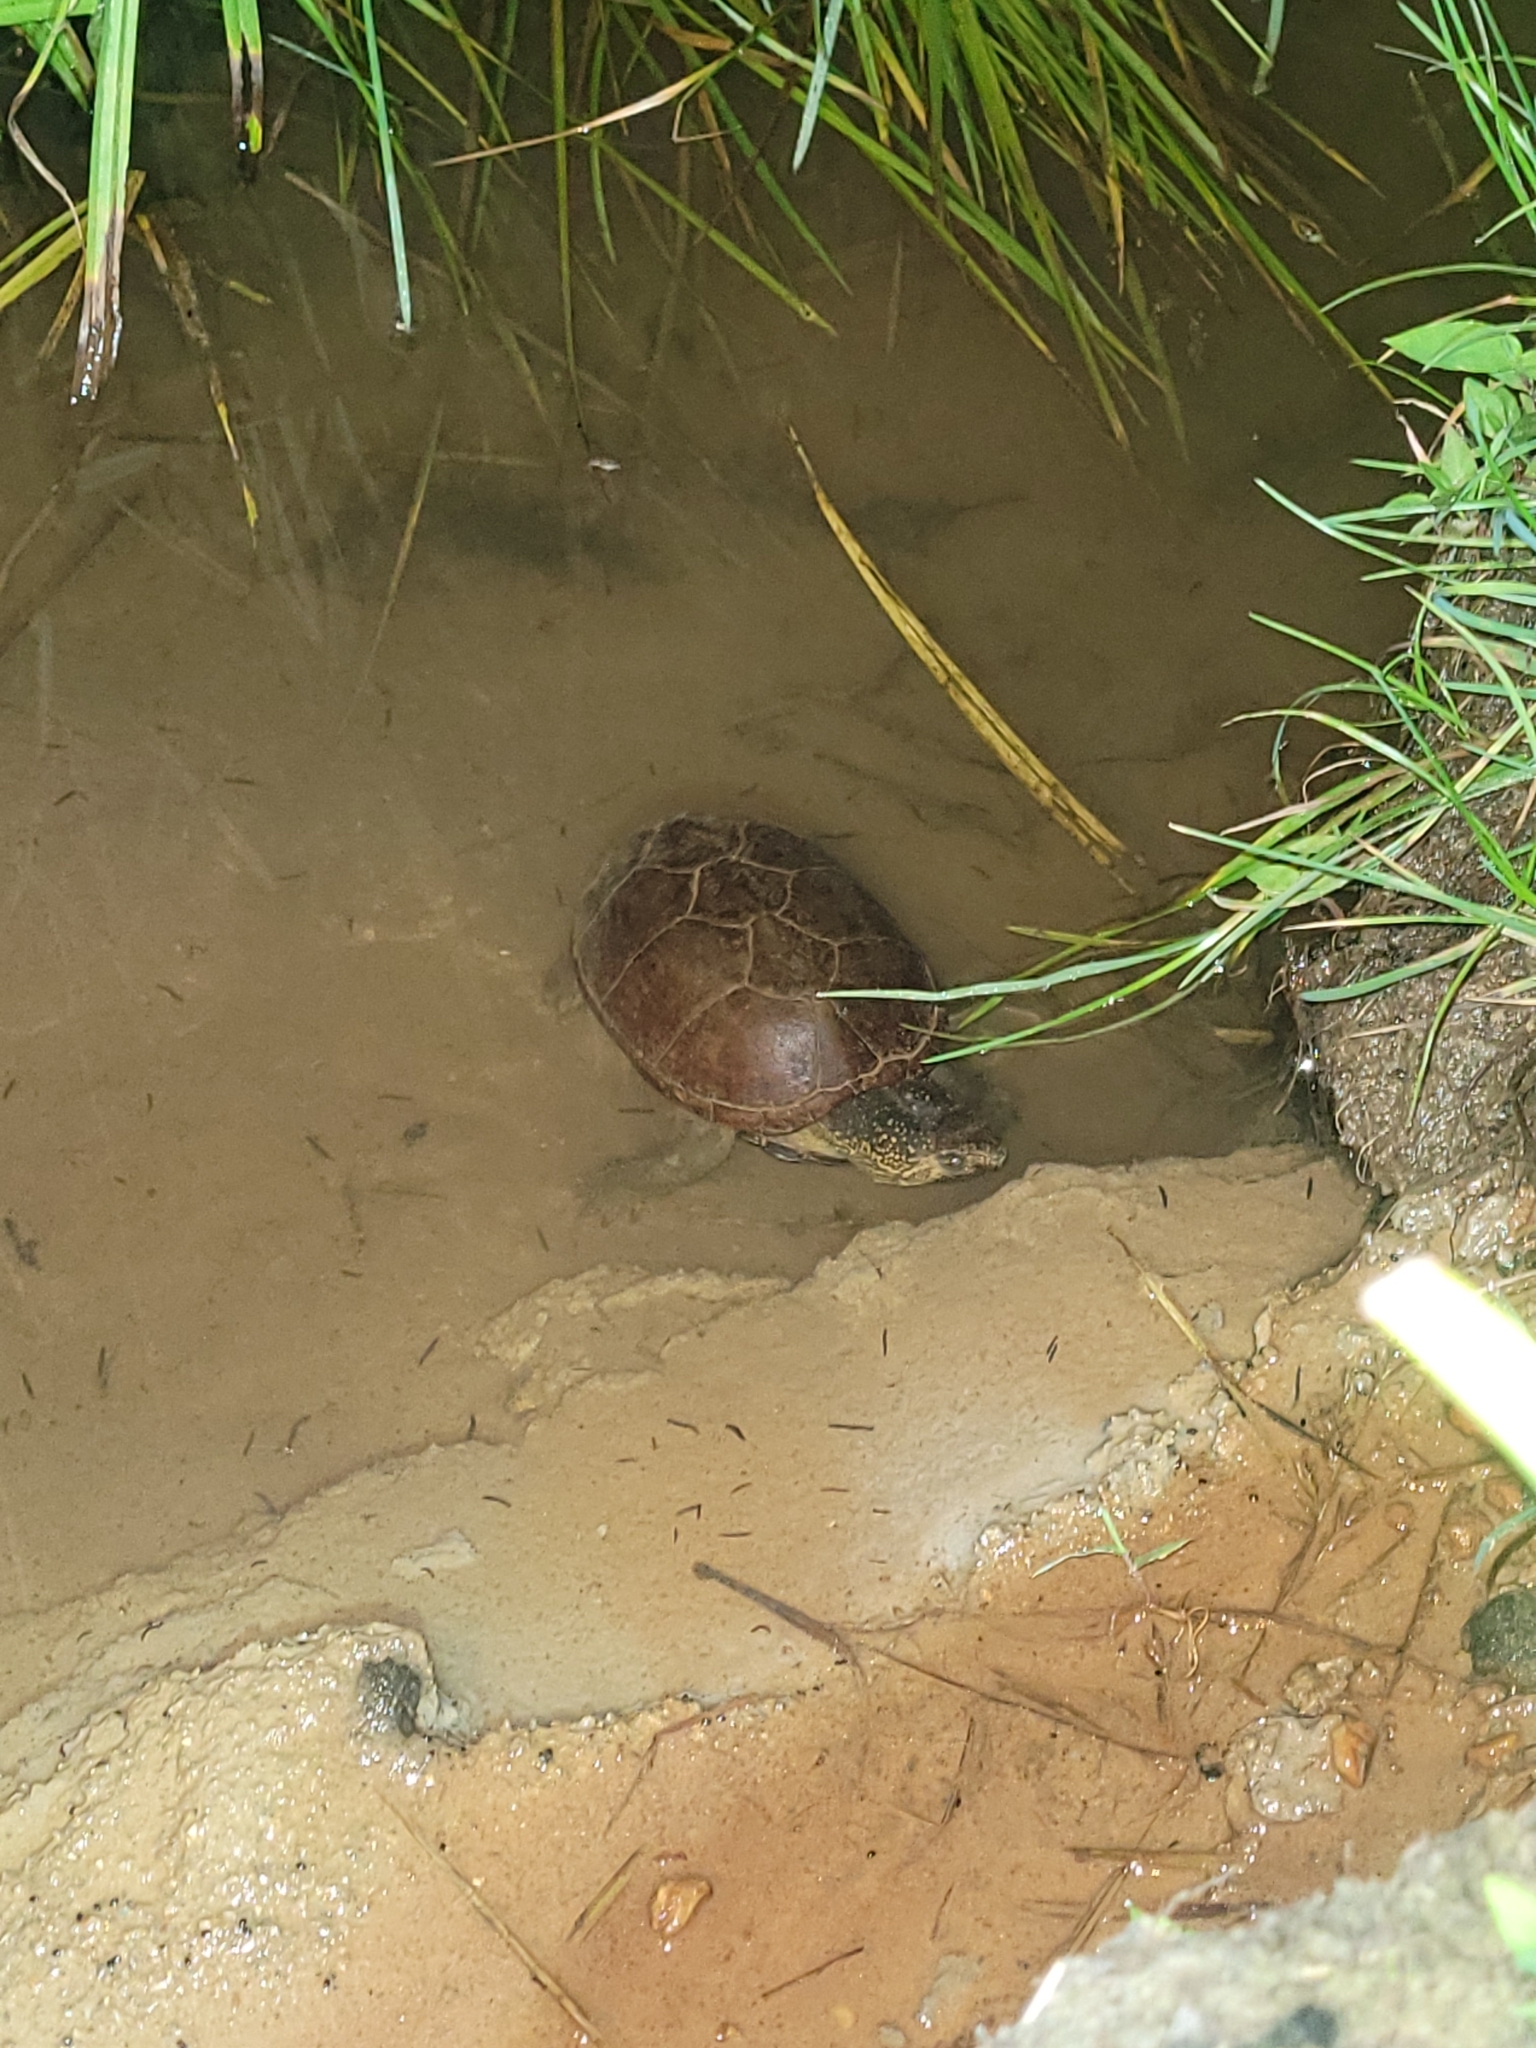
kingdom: Animalia
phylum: Chordata
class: Testudines
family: Kinosternidae
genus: Kinosternon
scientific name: Kinosternon subrubrum
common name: Eastern mud turtle
